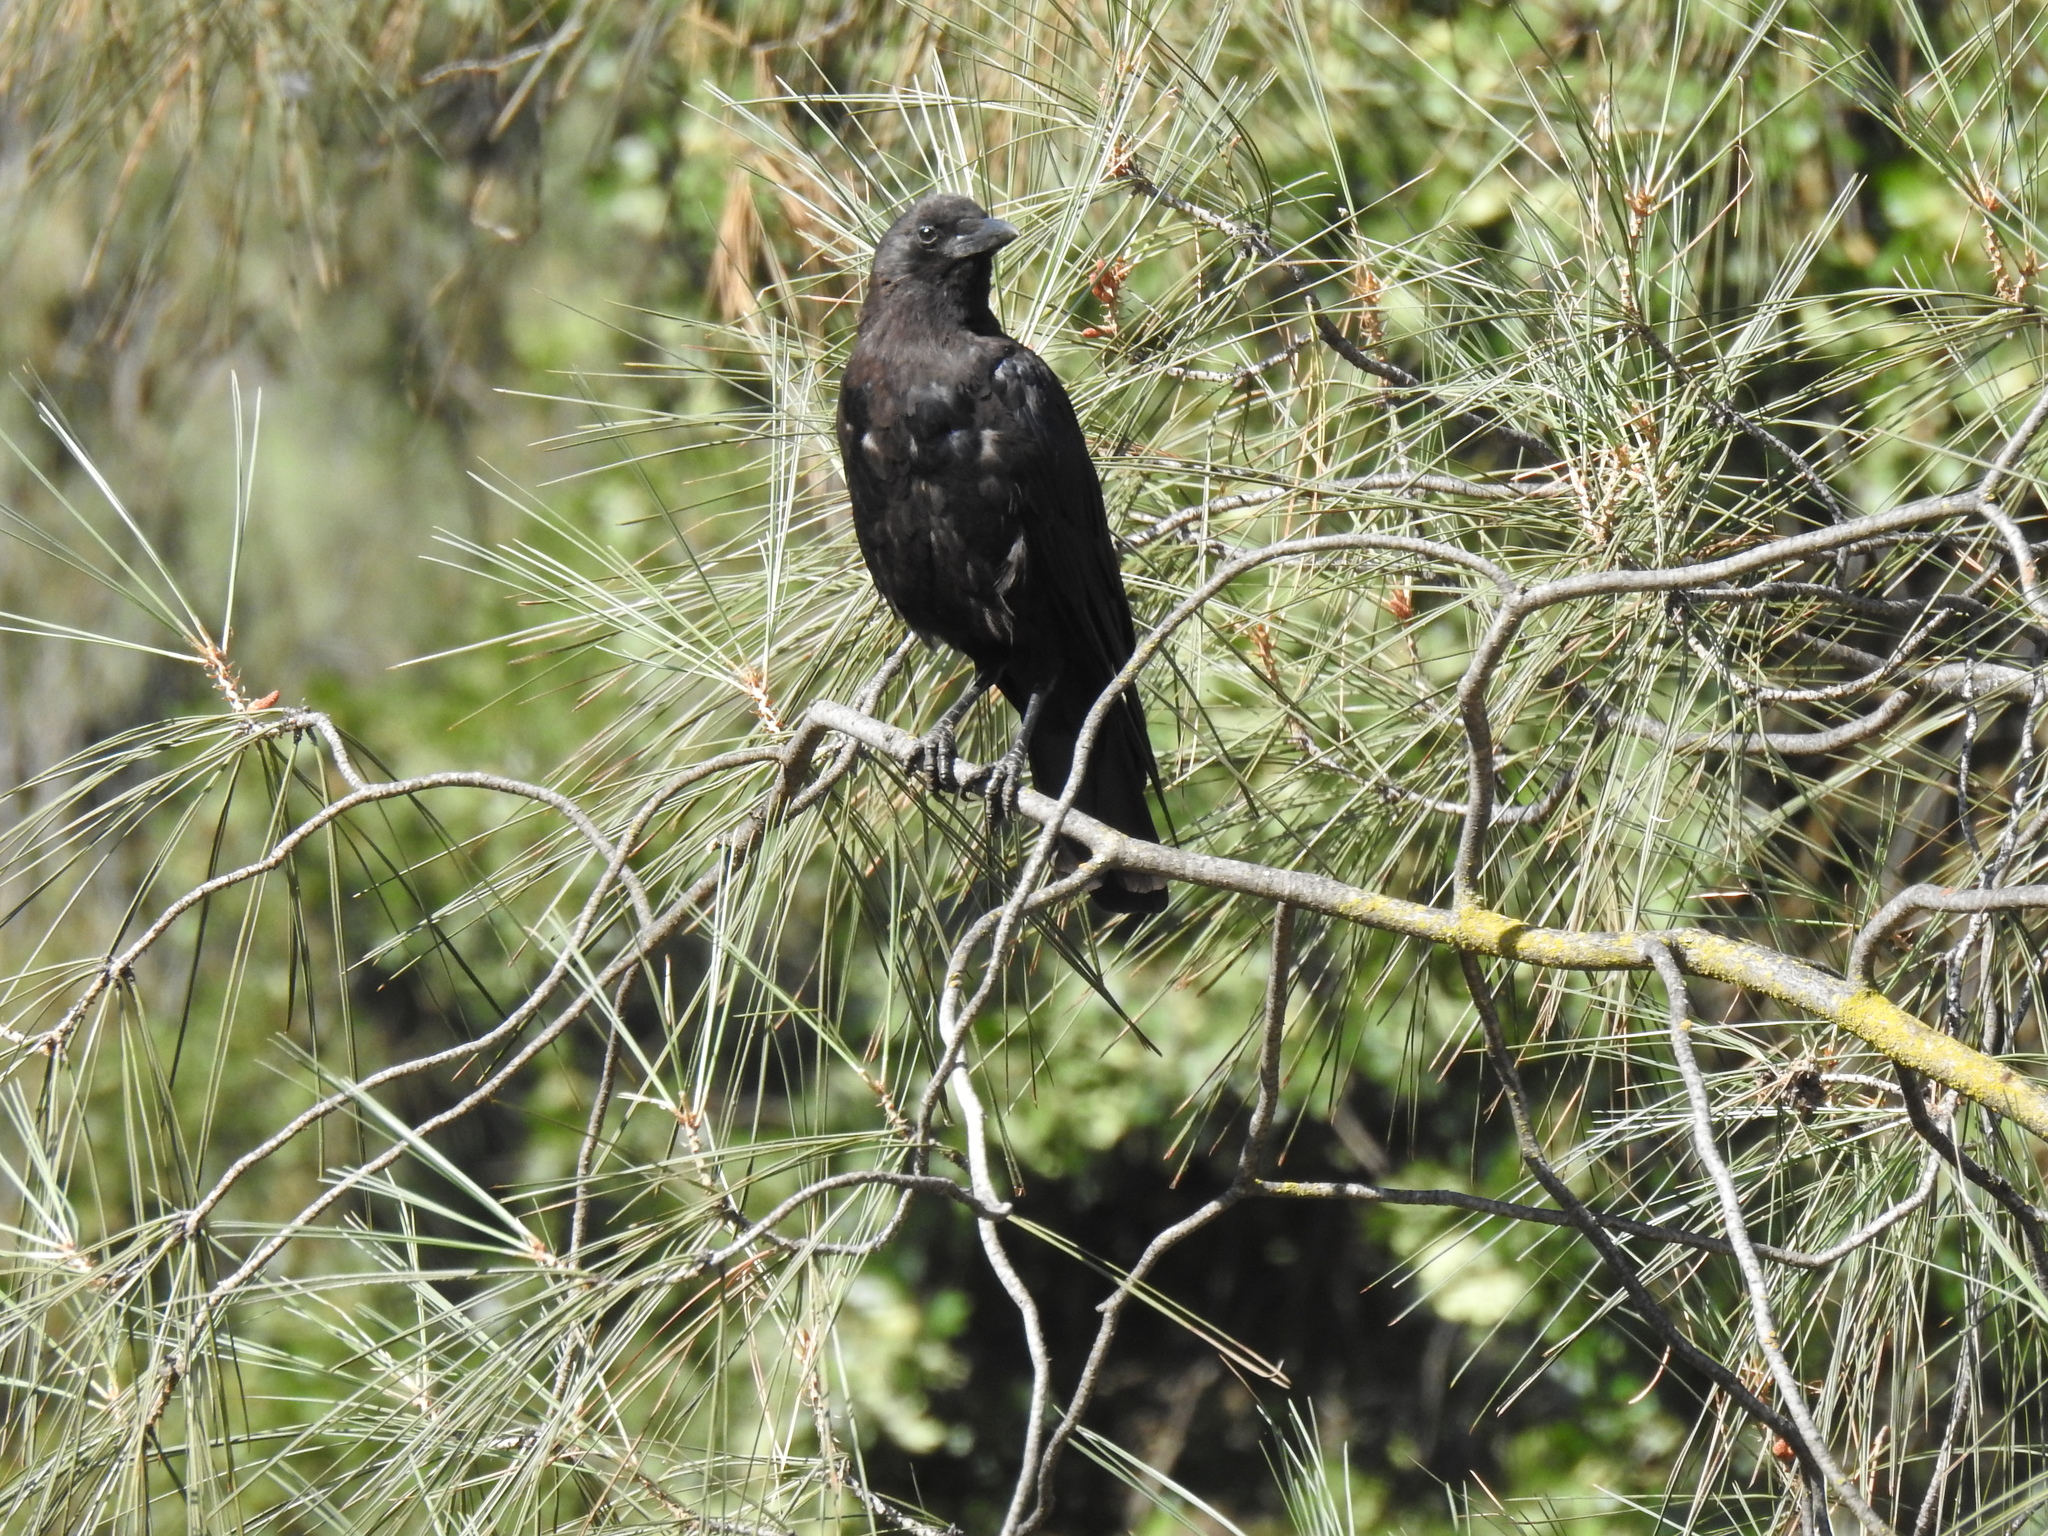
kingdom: Animalia
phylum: Chordata
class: Aves
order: Passeriformes
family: Corvidae
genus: Corvus
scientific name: Corvus brachyrhynchos
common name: American crow
